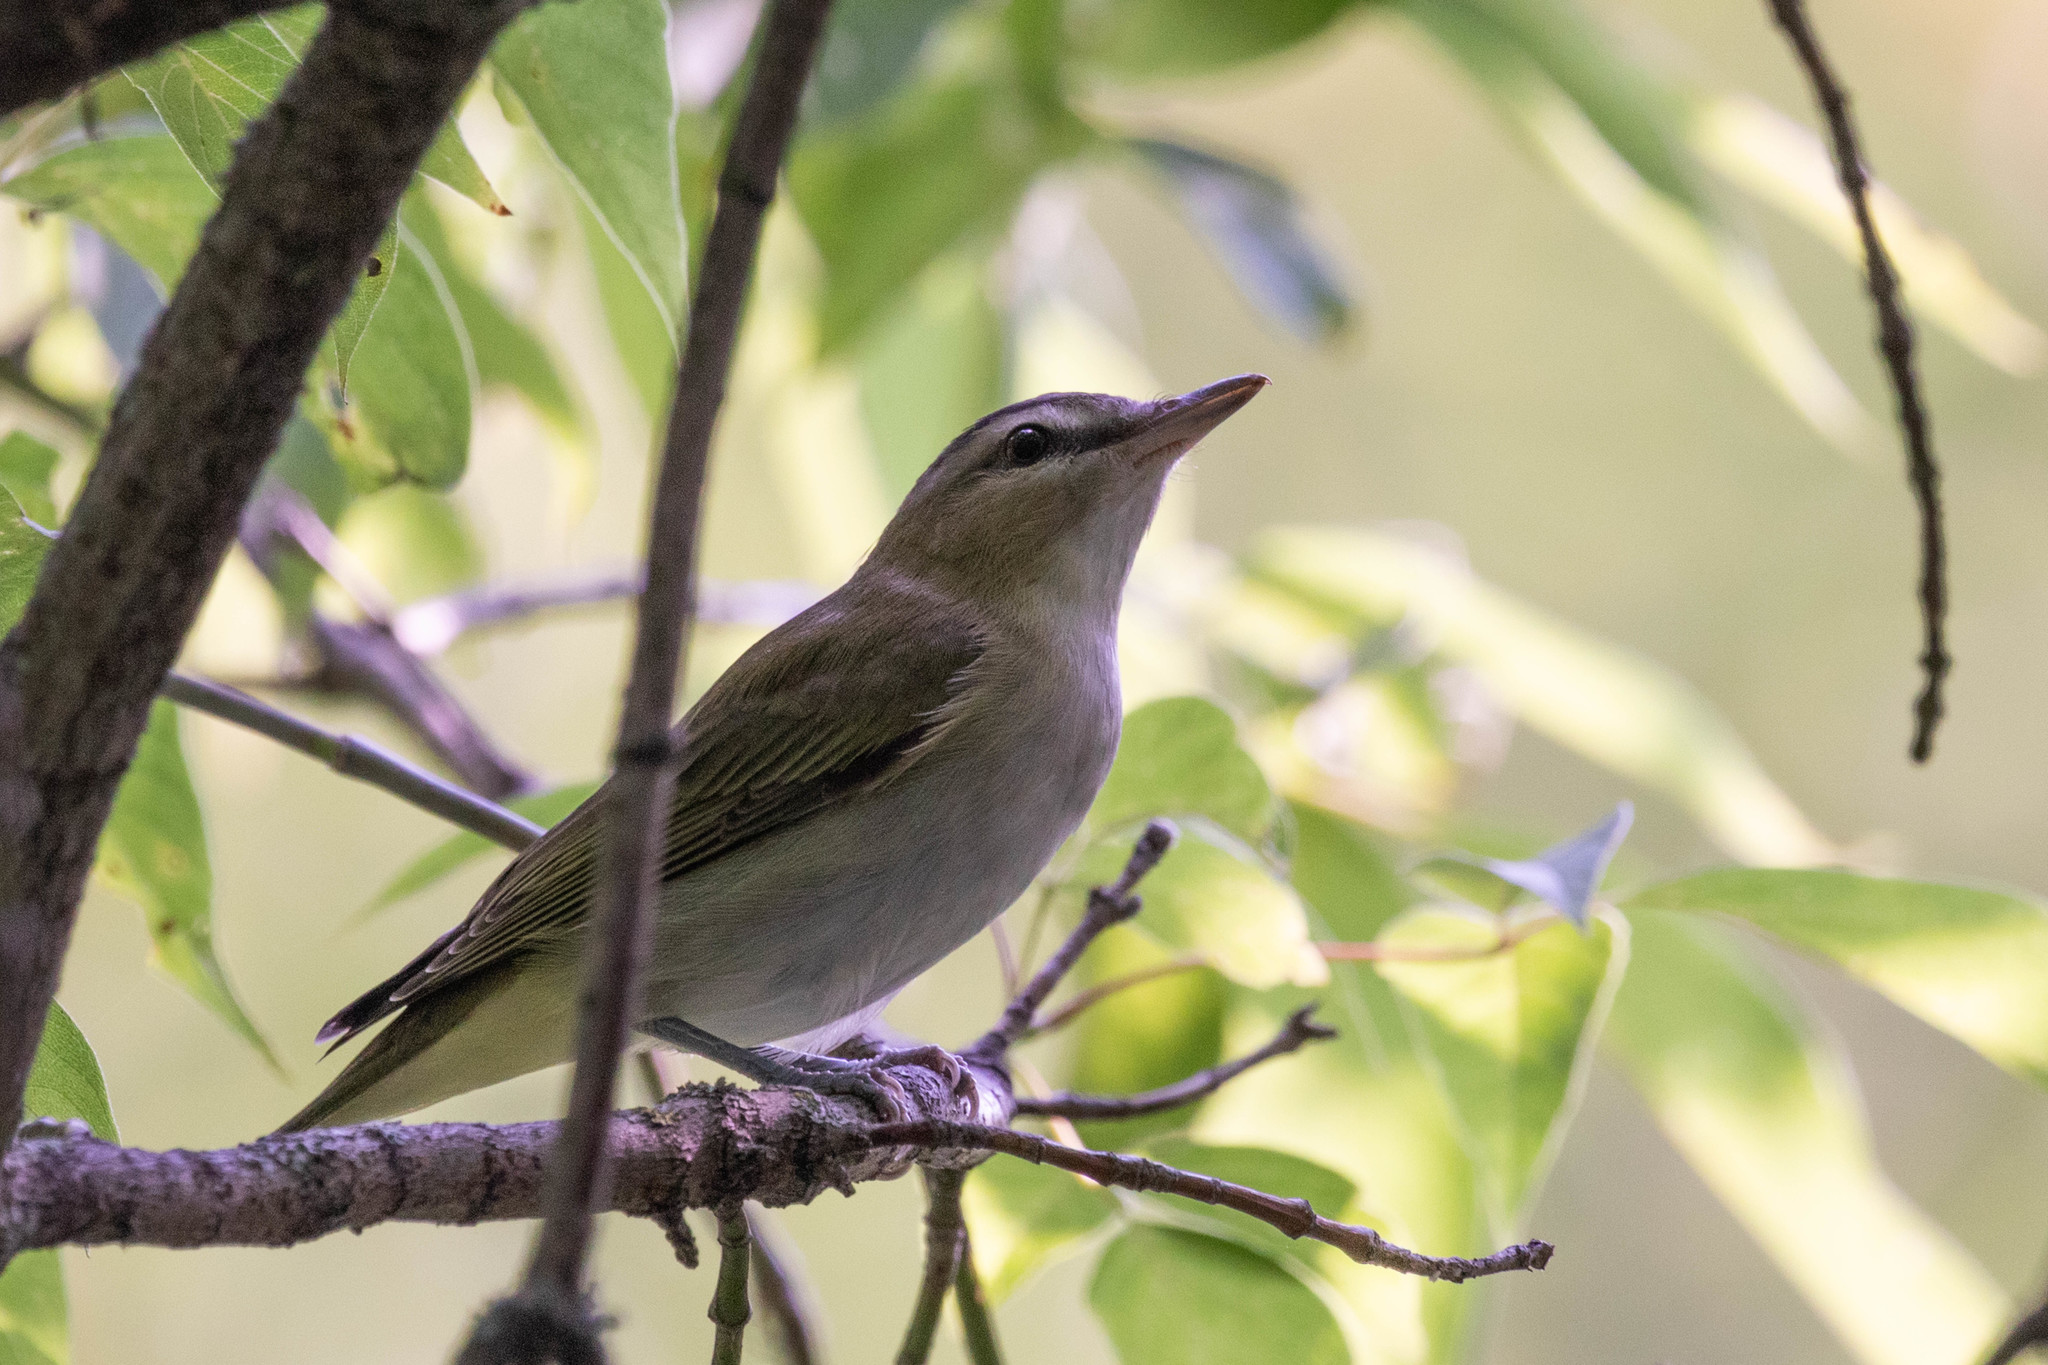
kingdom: Animalia
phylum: Chordata
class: Aves
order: Passeriformes
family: Vireonidae
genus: Vireo
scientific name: Vireo olivaceus
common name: Red-eyed vireo
